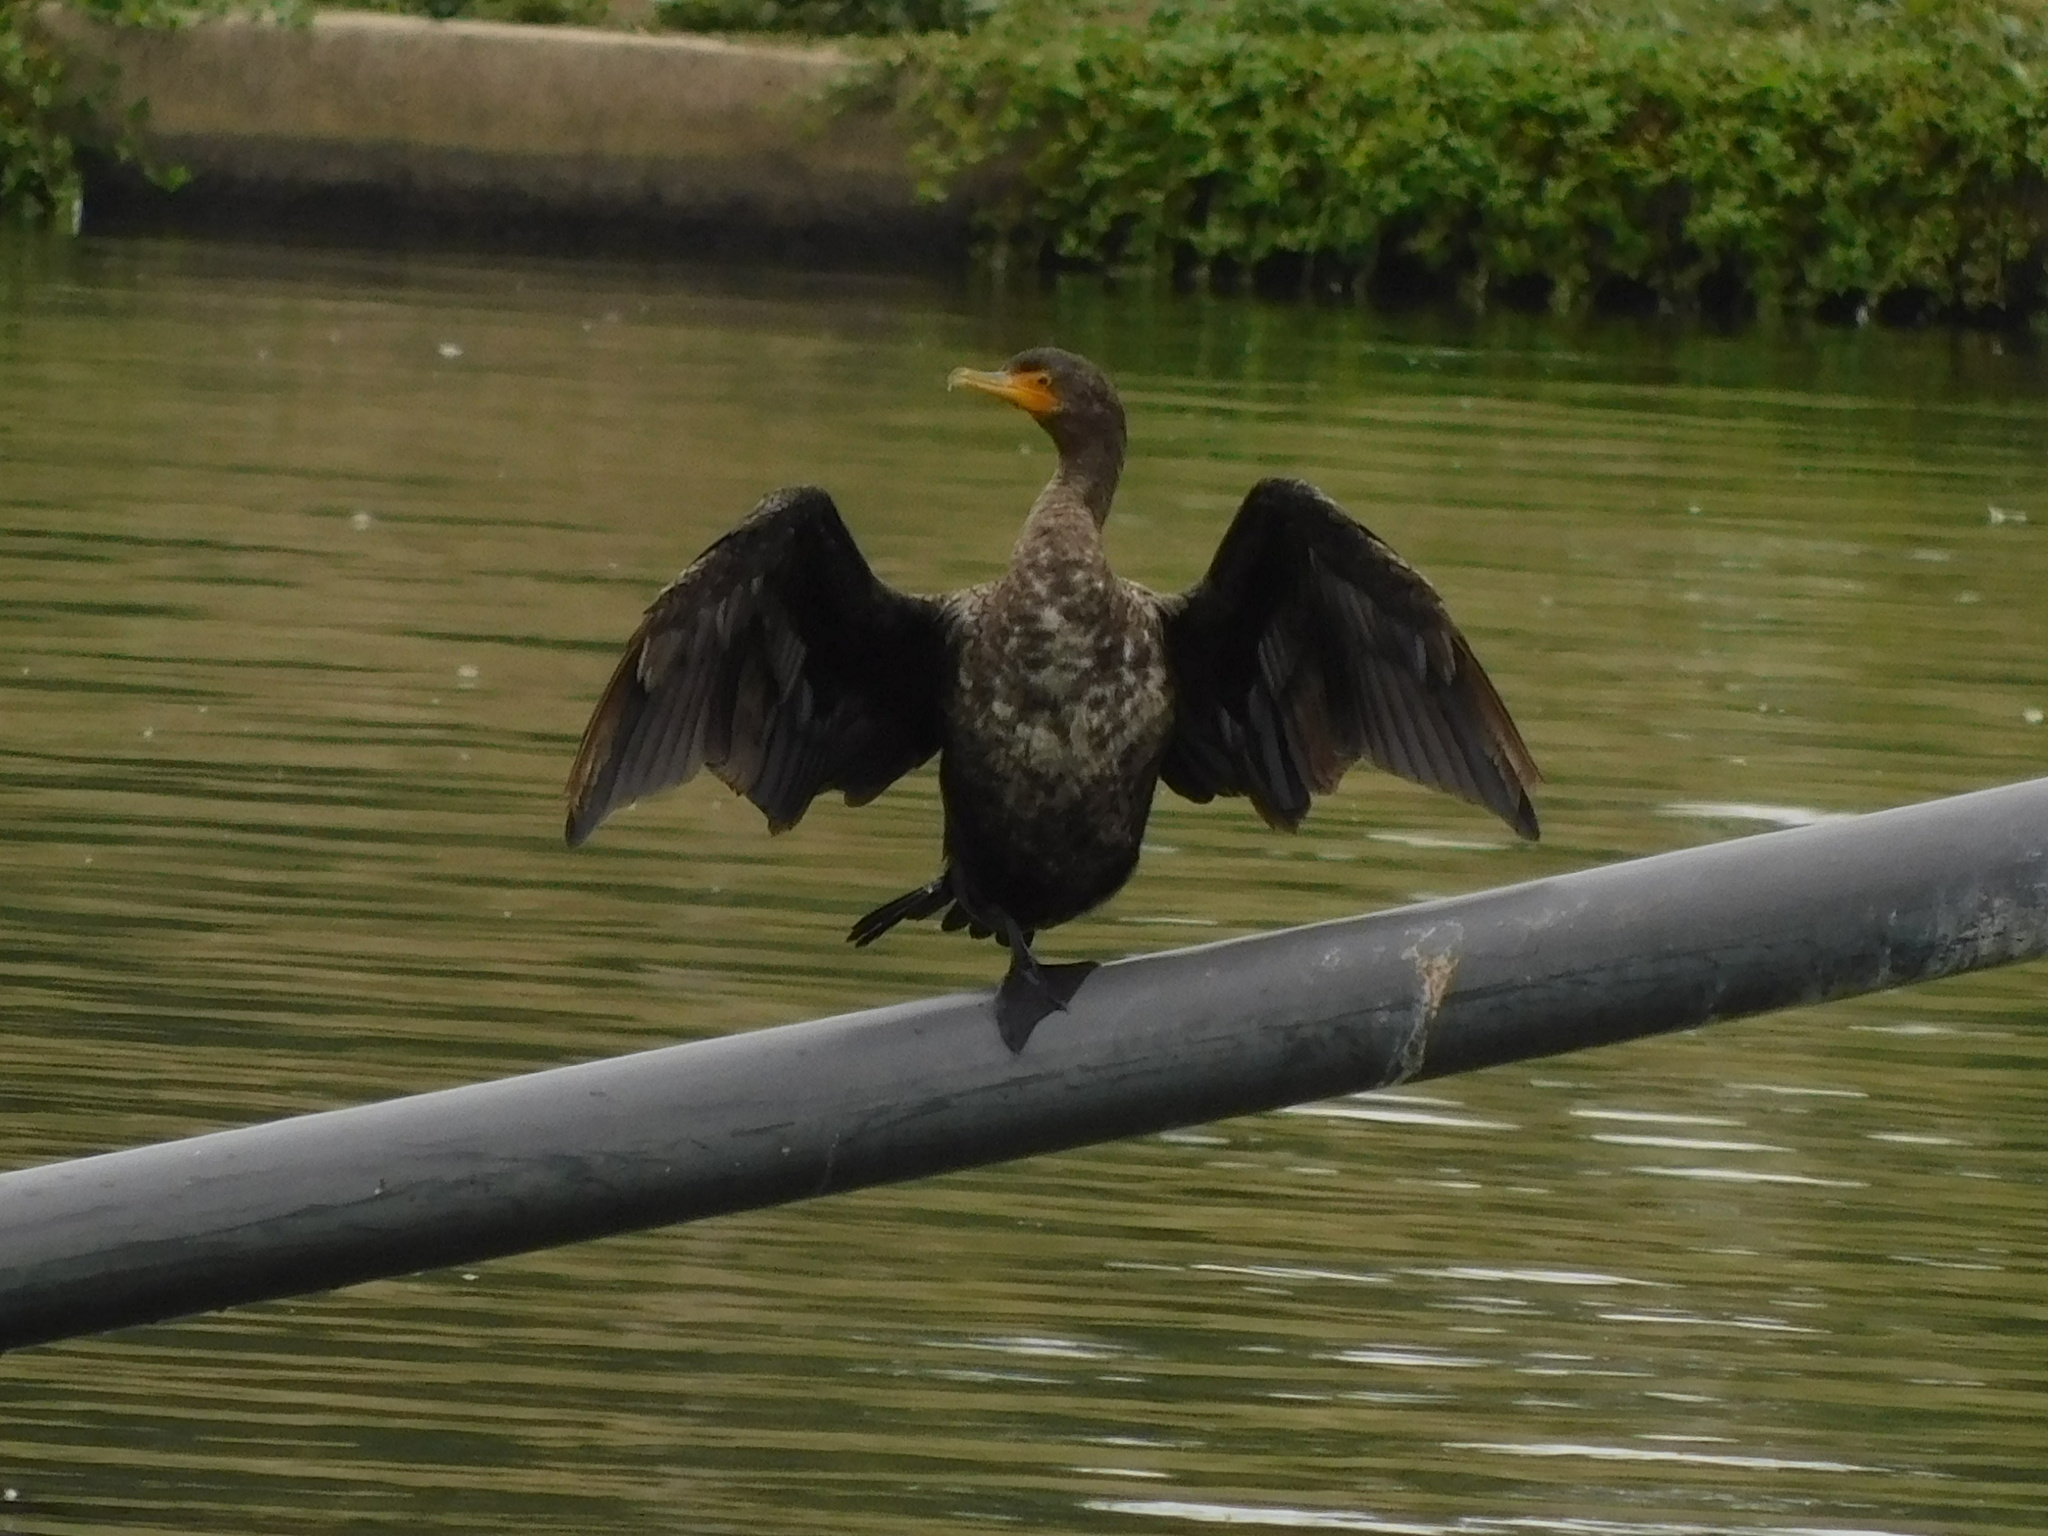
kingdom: Animalia
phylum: Chordata
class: Aves
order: Suliformes
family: Phalacrocoracidae
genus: Phalacrocorax
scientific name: Phalacrocorax auritus
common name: Double-crested cormorant
